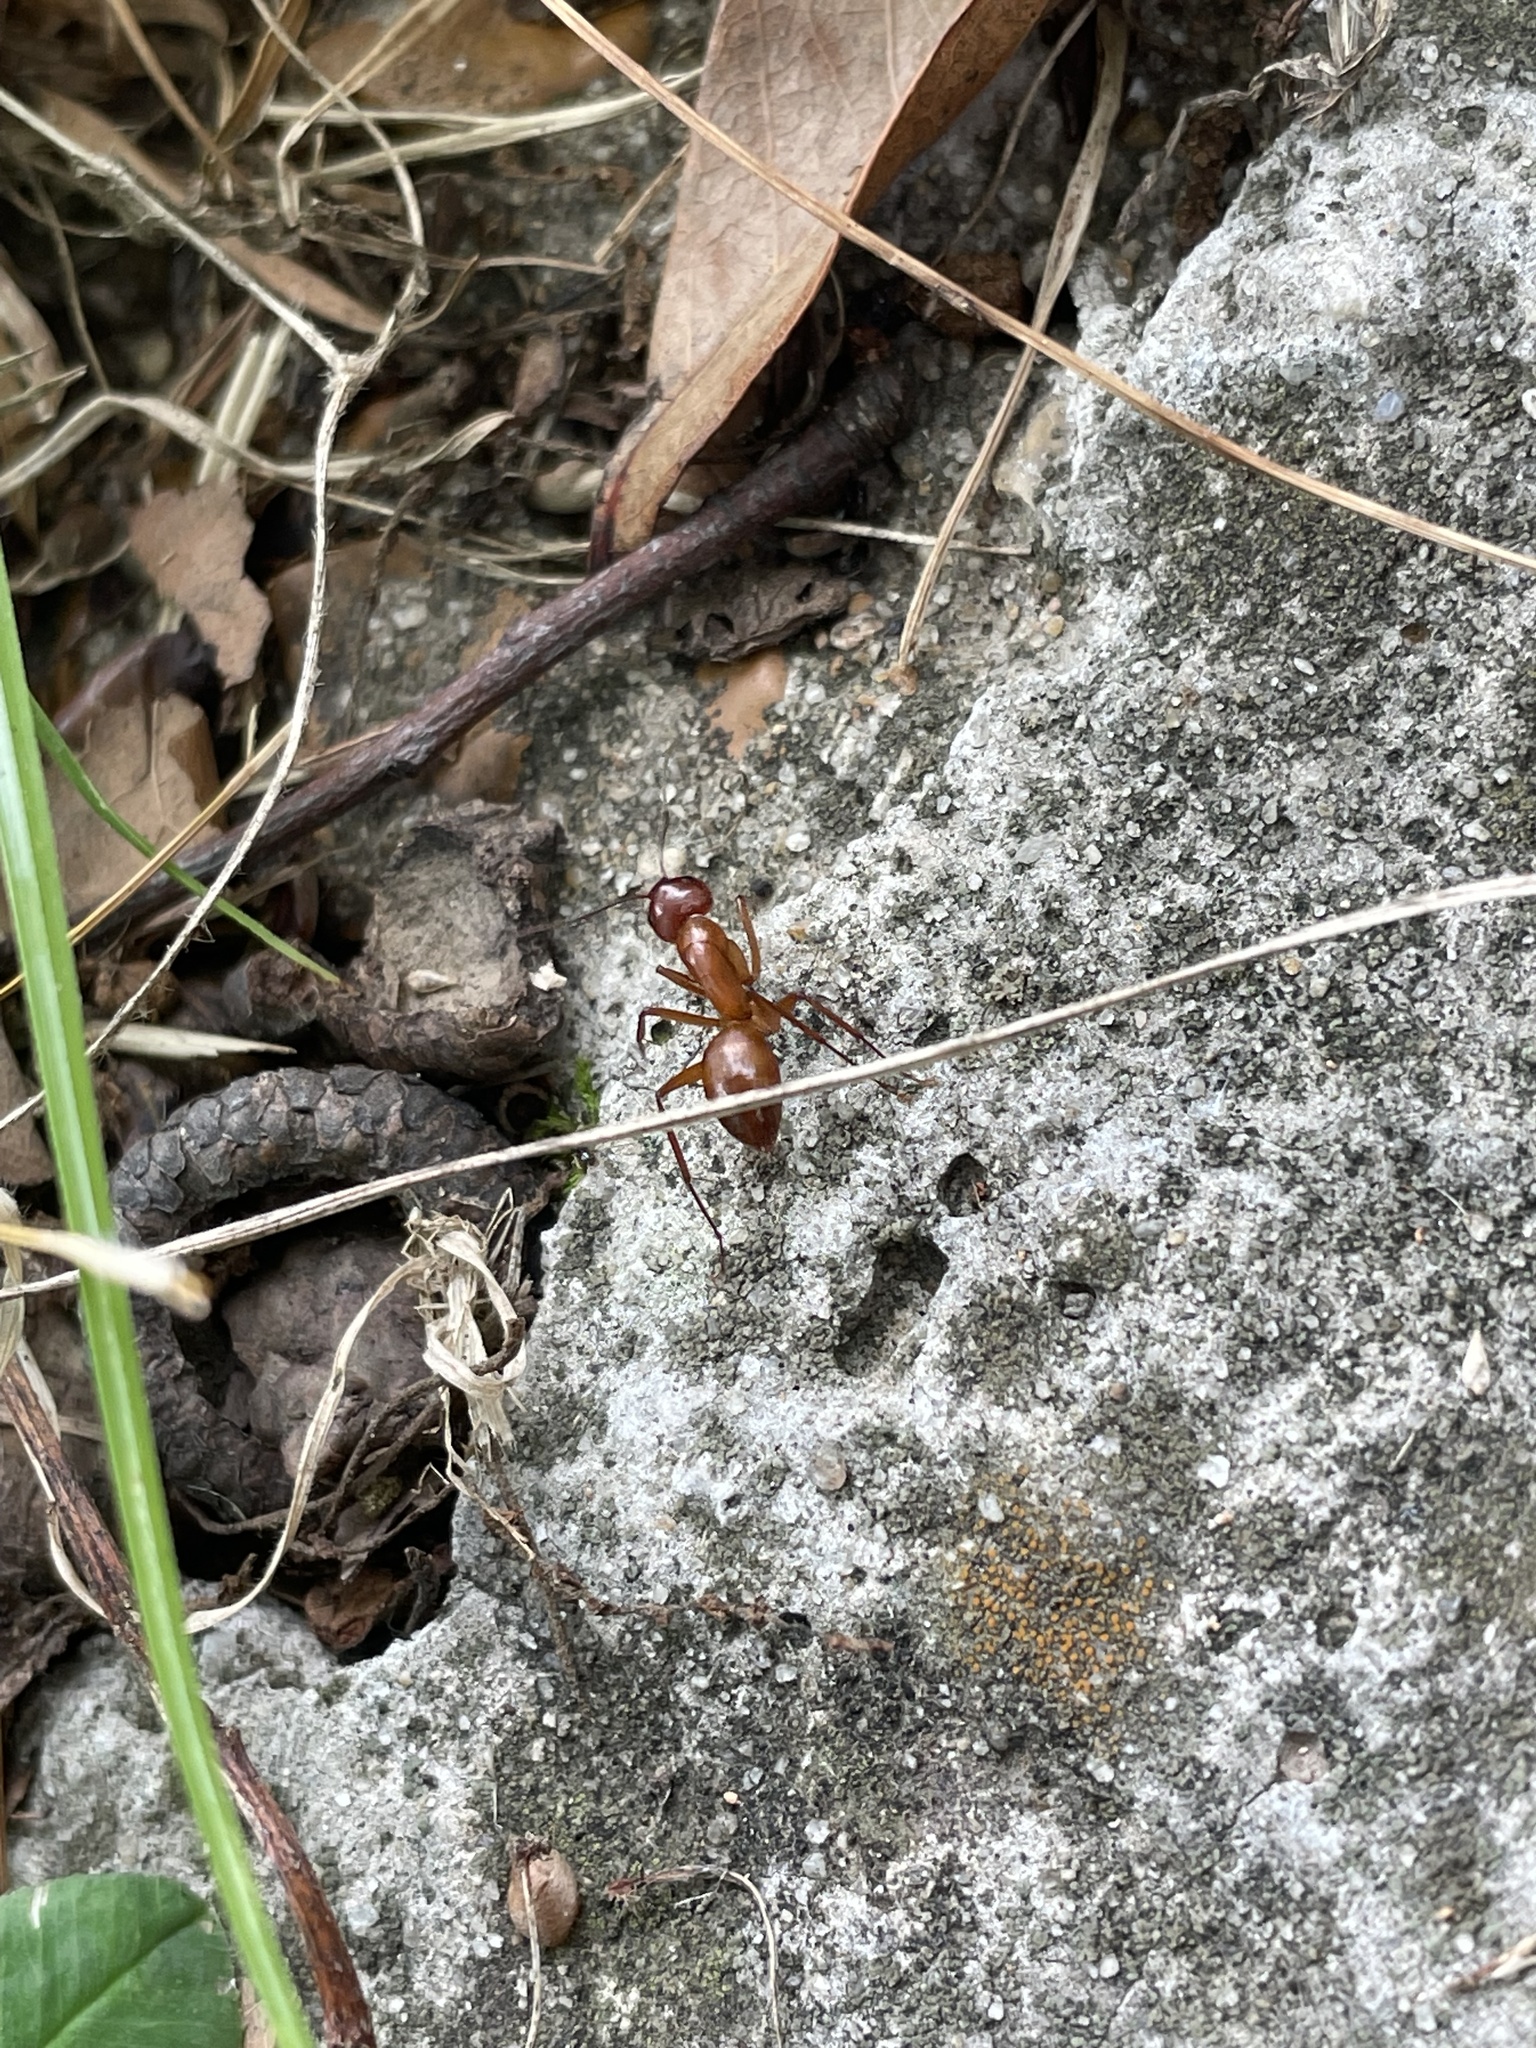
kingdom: Animalia
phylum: Arthropoda
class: Insecta
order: Hymenoptera
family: Formicidae
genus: Camponotus
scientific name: Camponotus castaneus
